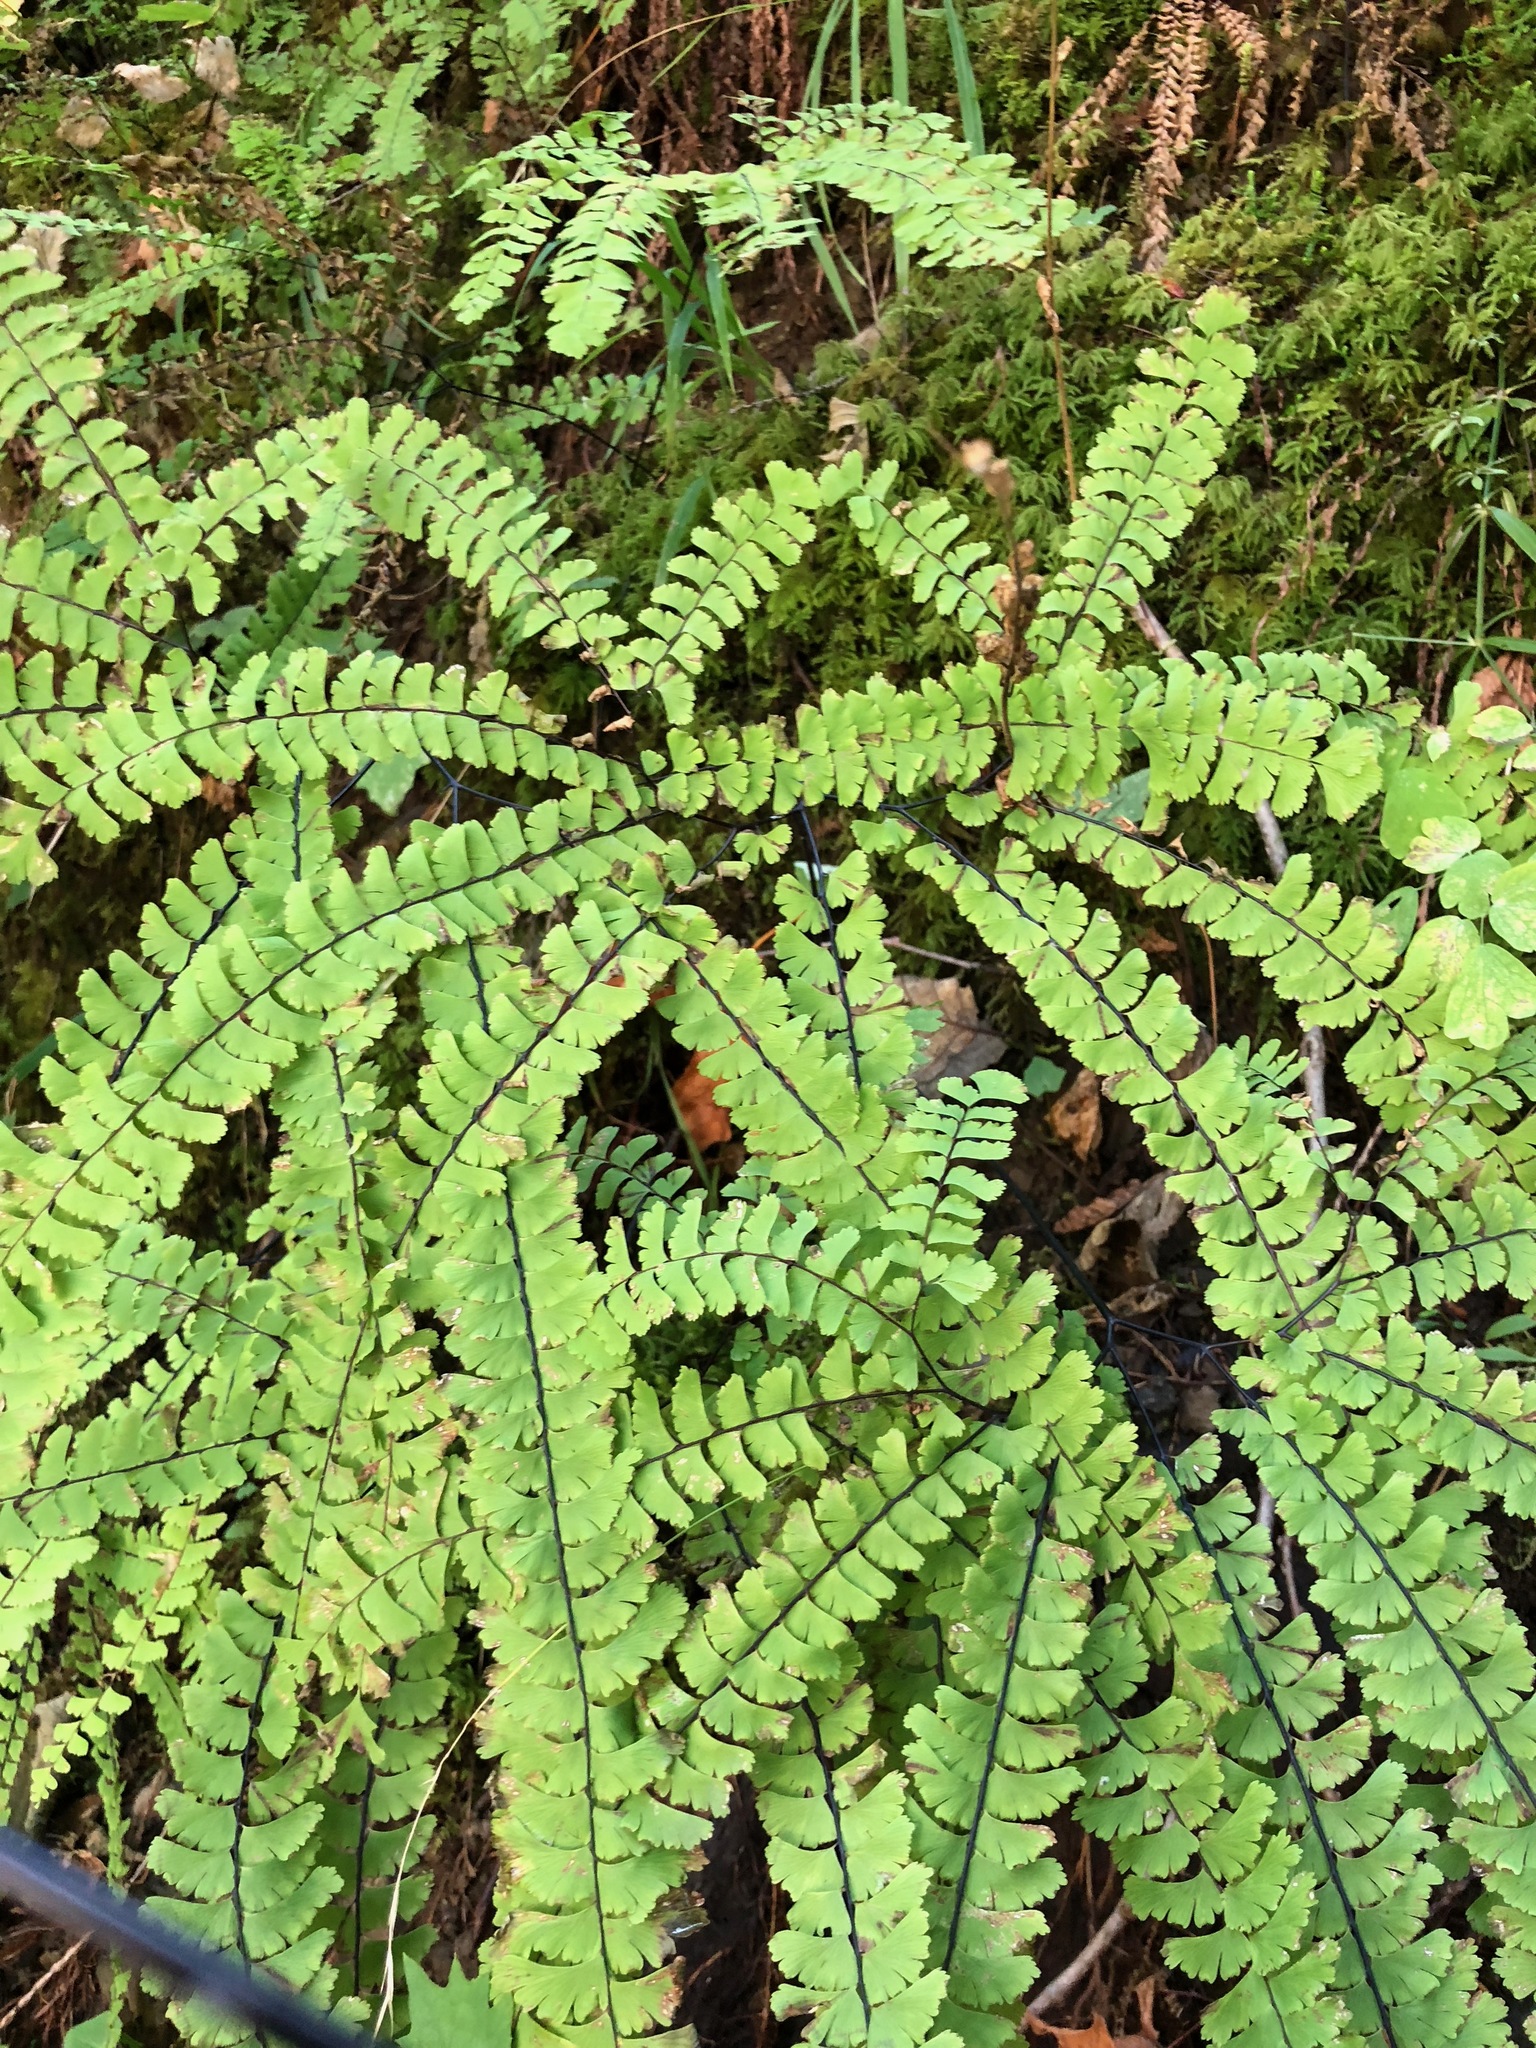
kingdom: Plantae
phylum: Tracheophyta
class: Polypodiopsida
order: Polypodiales
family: Pteridaceae
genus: Adiantum
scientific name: Adiantum aleuticum
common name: Aleutian maidenhair fern
